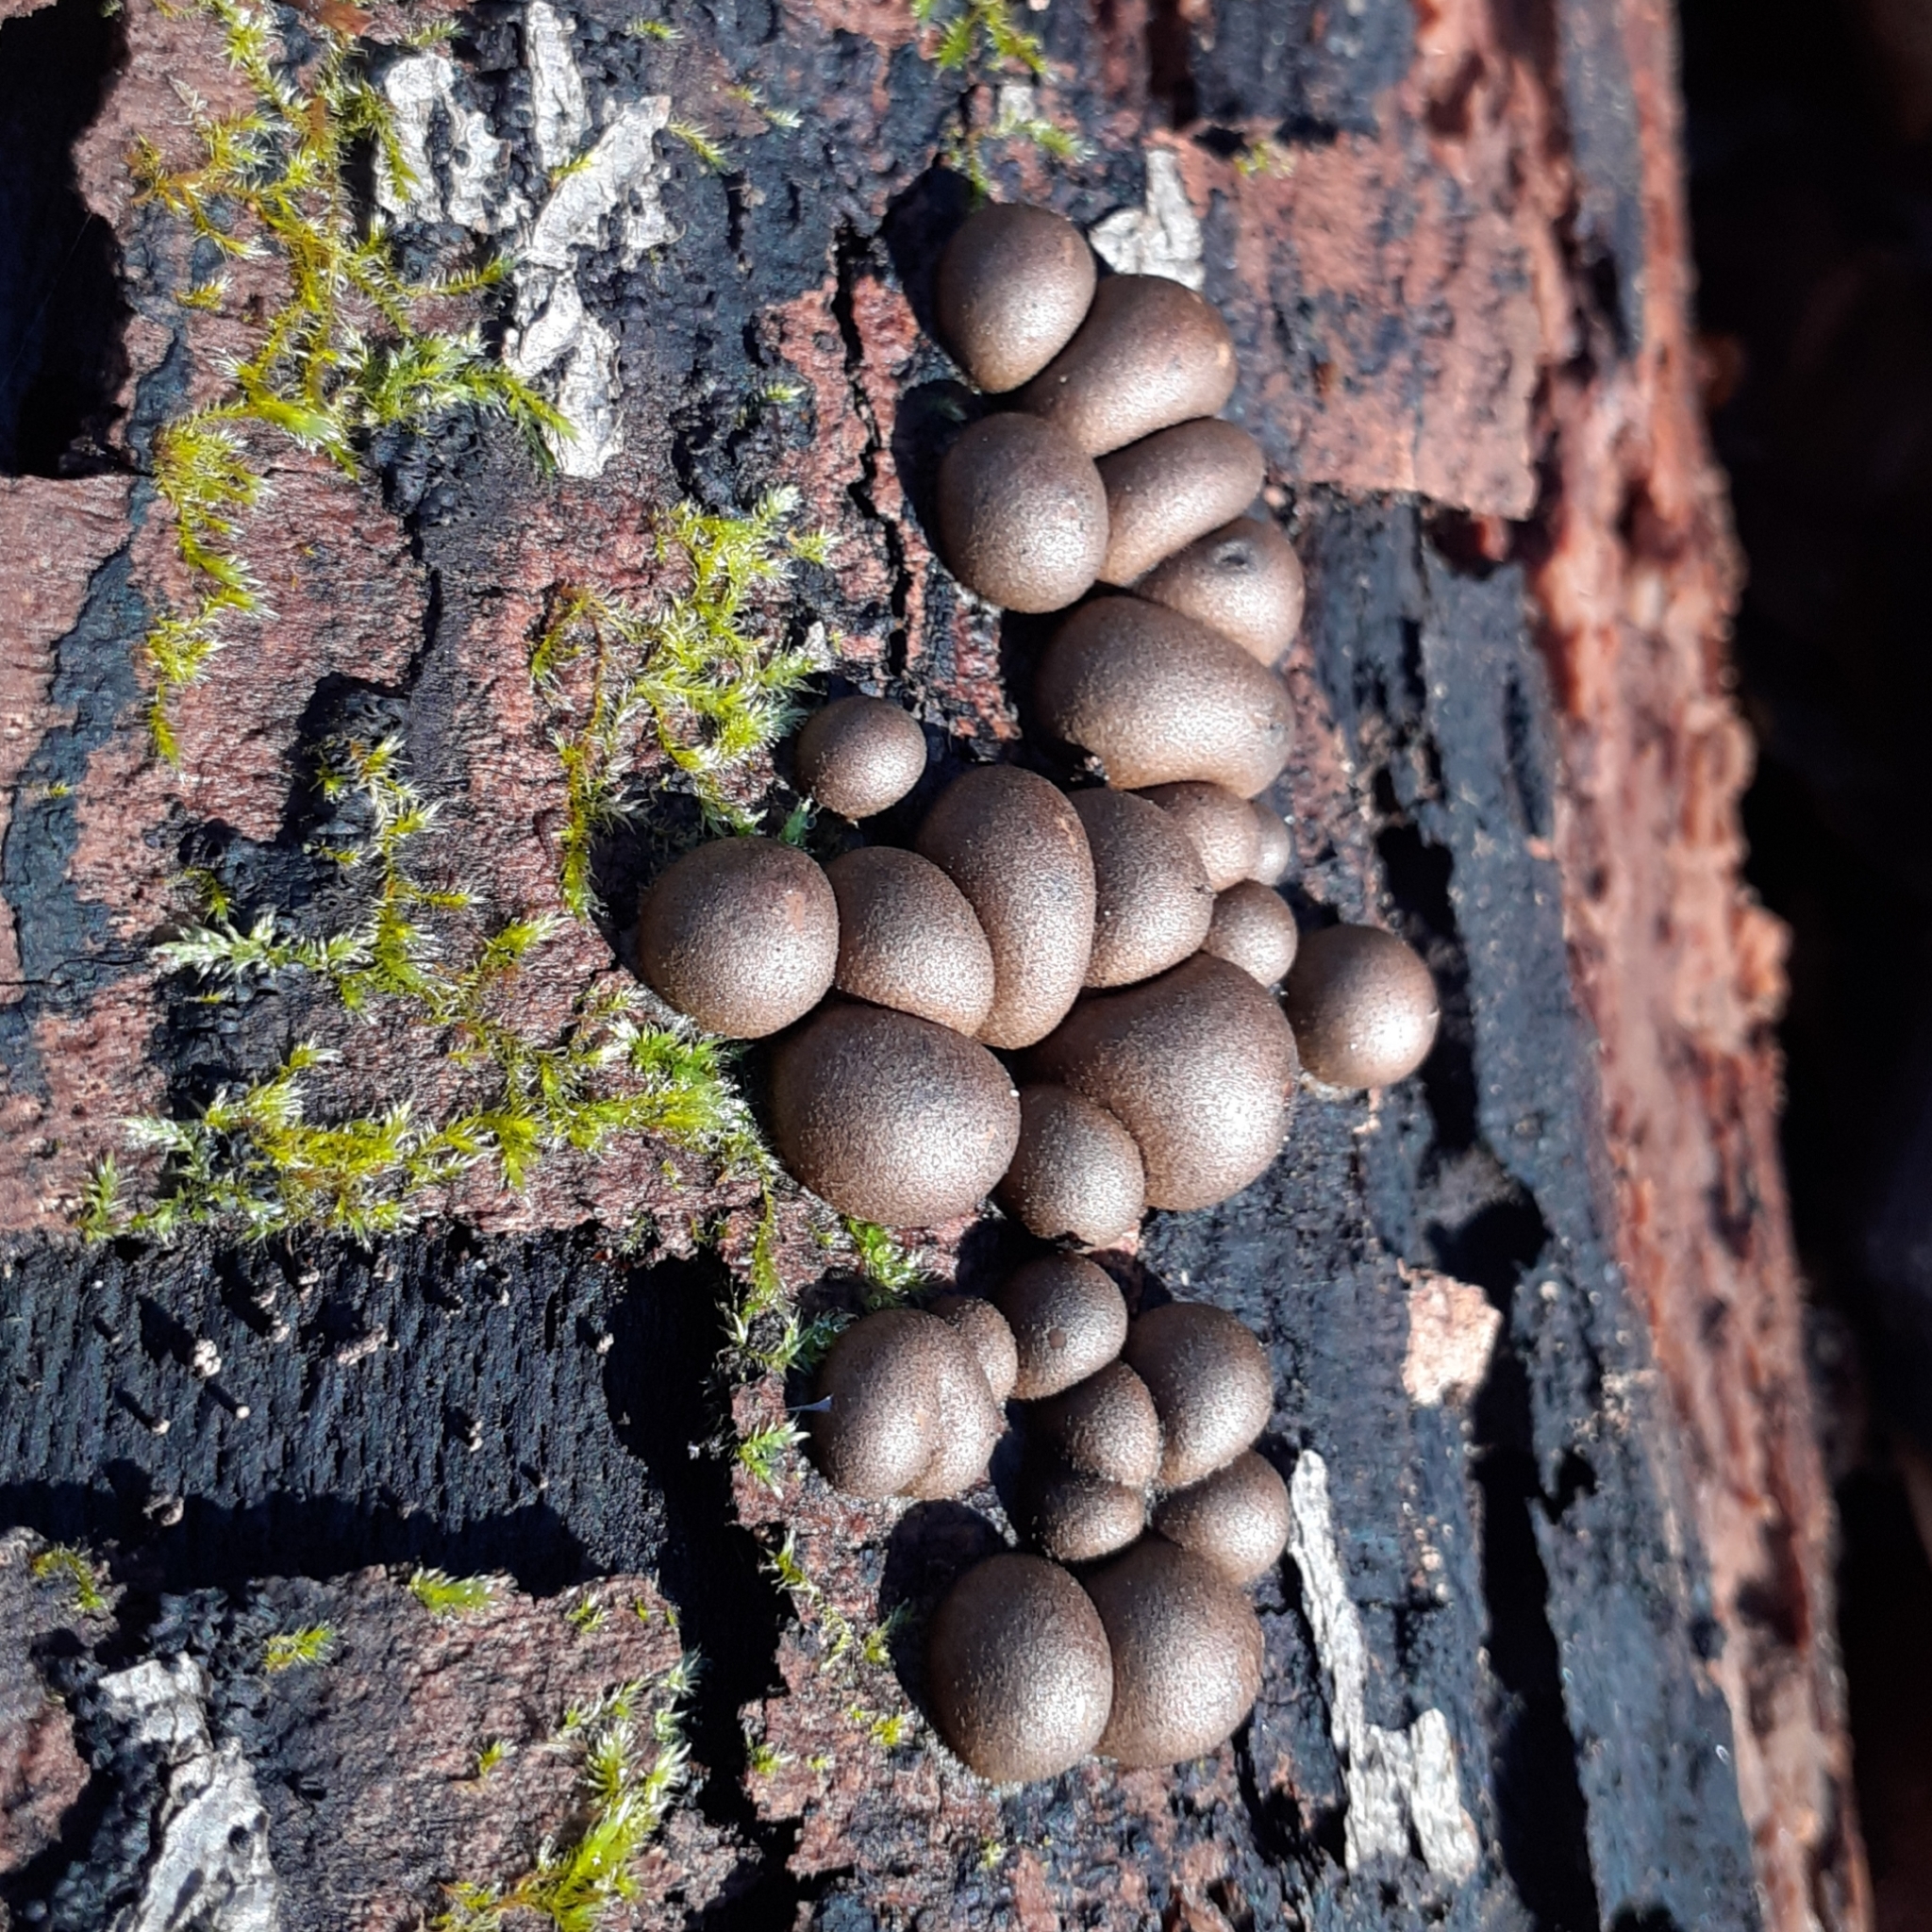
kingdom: Protozoa
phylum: Mycetozoa
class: Myxomycetes
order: Cribrariales
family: Tubiferaceae
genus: Lycogala
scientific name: Lycogala epidendrum
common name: Wolf's milk
